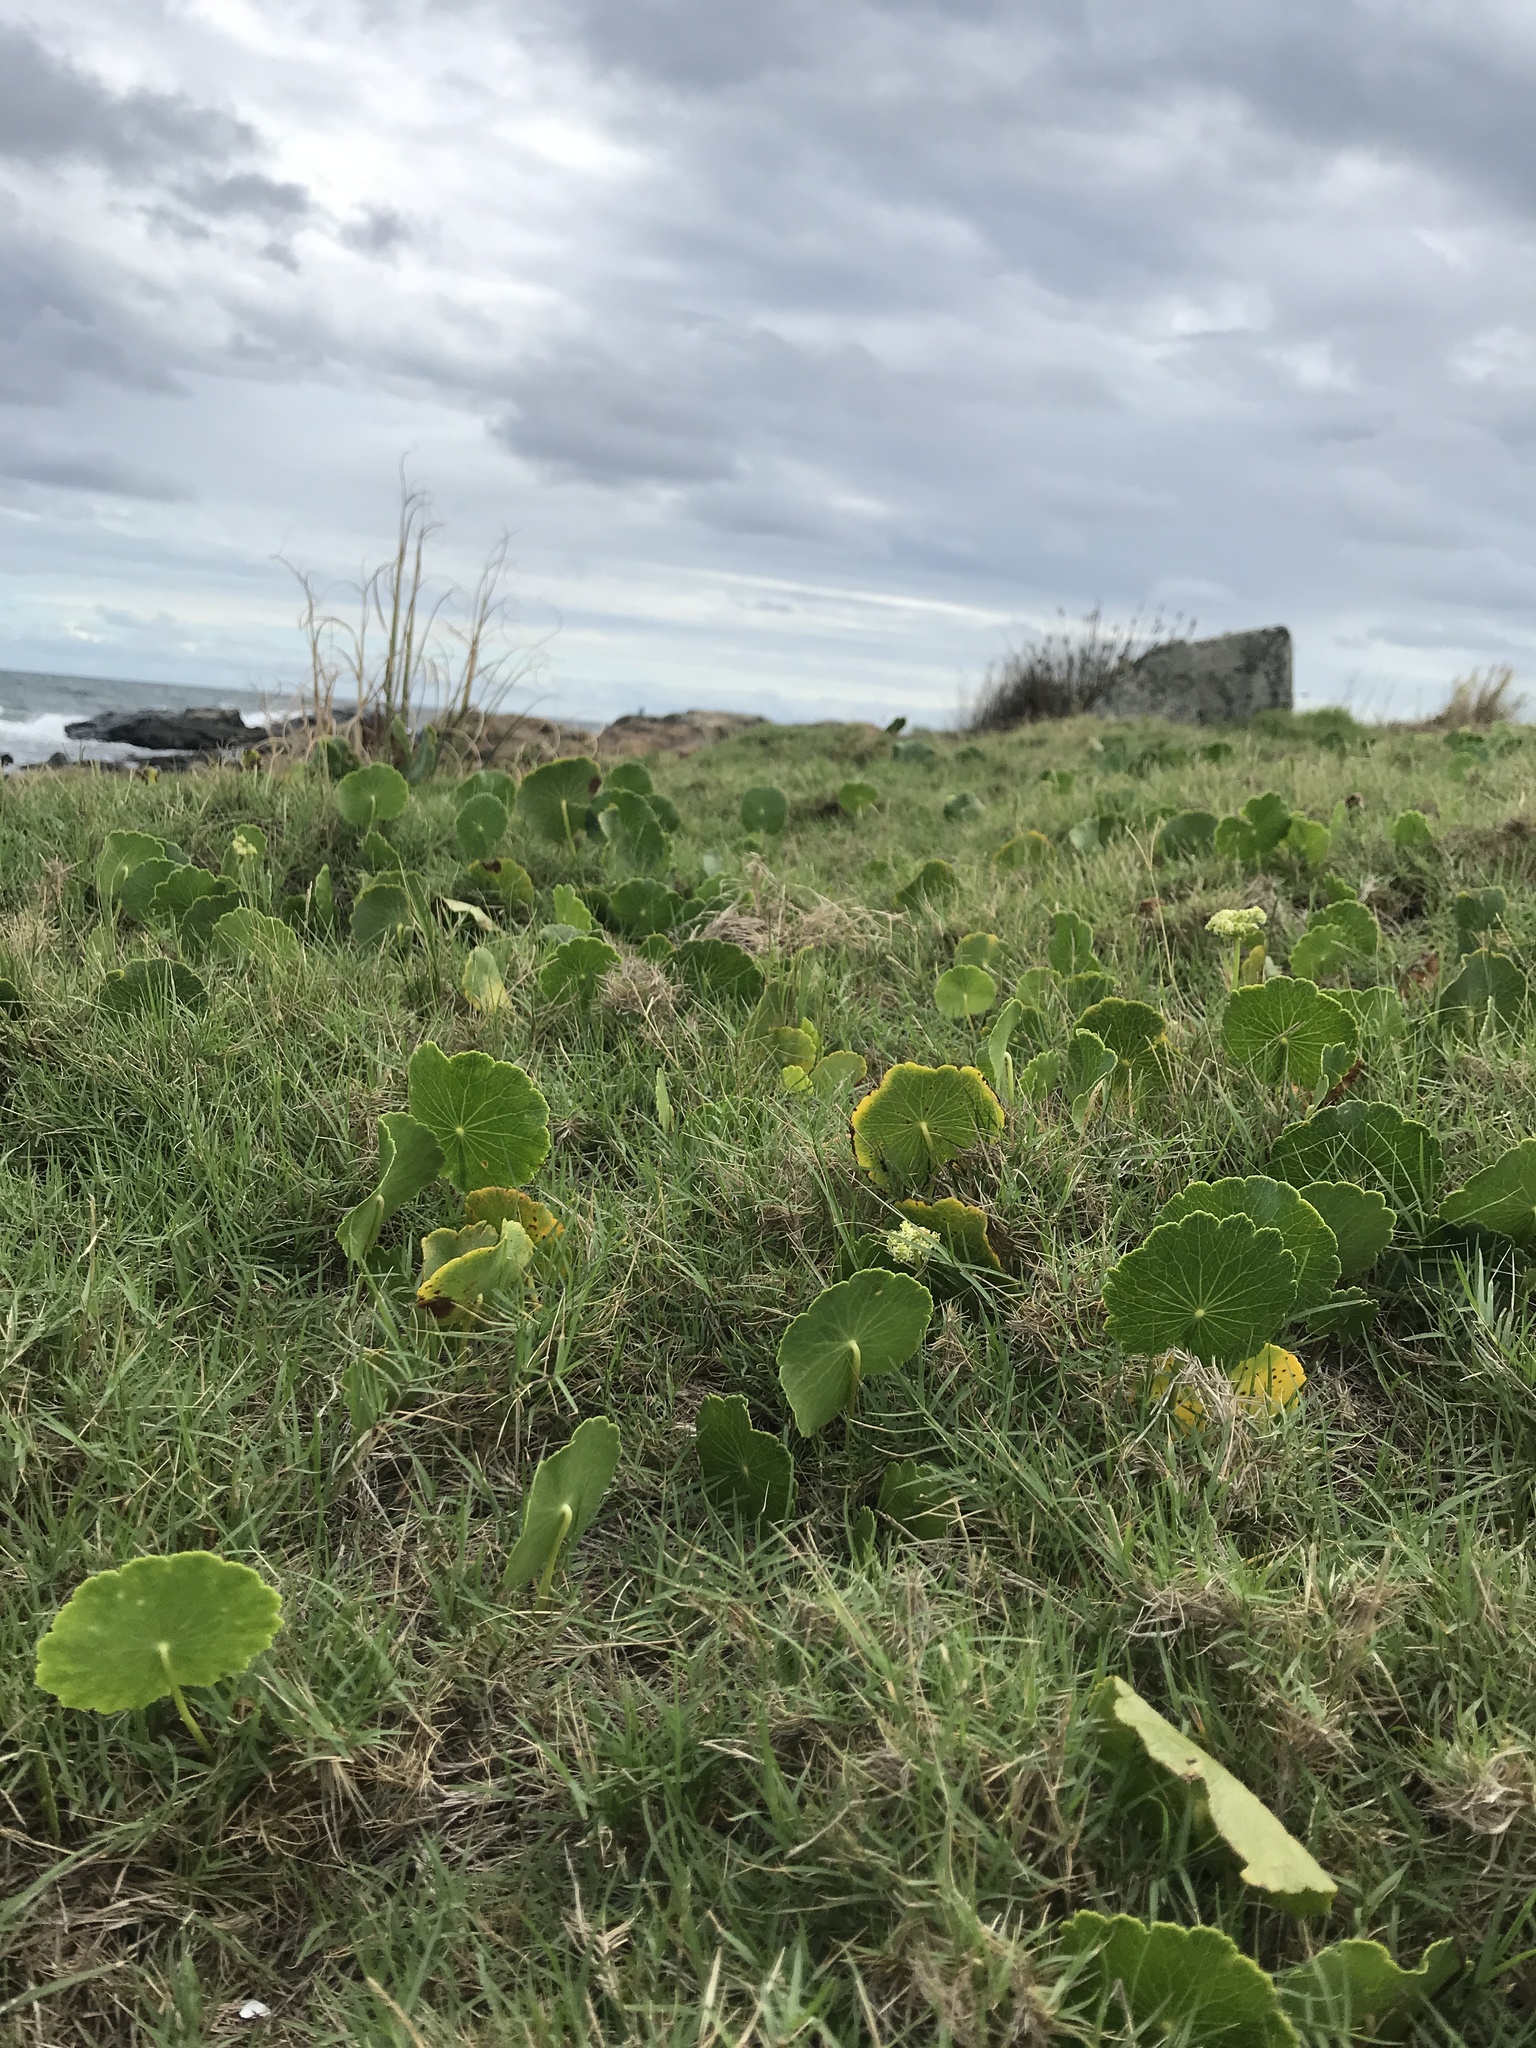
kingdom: Plantae
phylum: Tracheophyta
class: Magnoliopsida
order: Apiales
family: Araliaceae
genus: Hydrocotyle
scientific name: Hydrocotyle bonariensis
